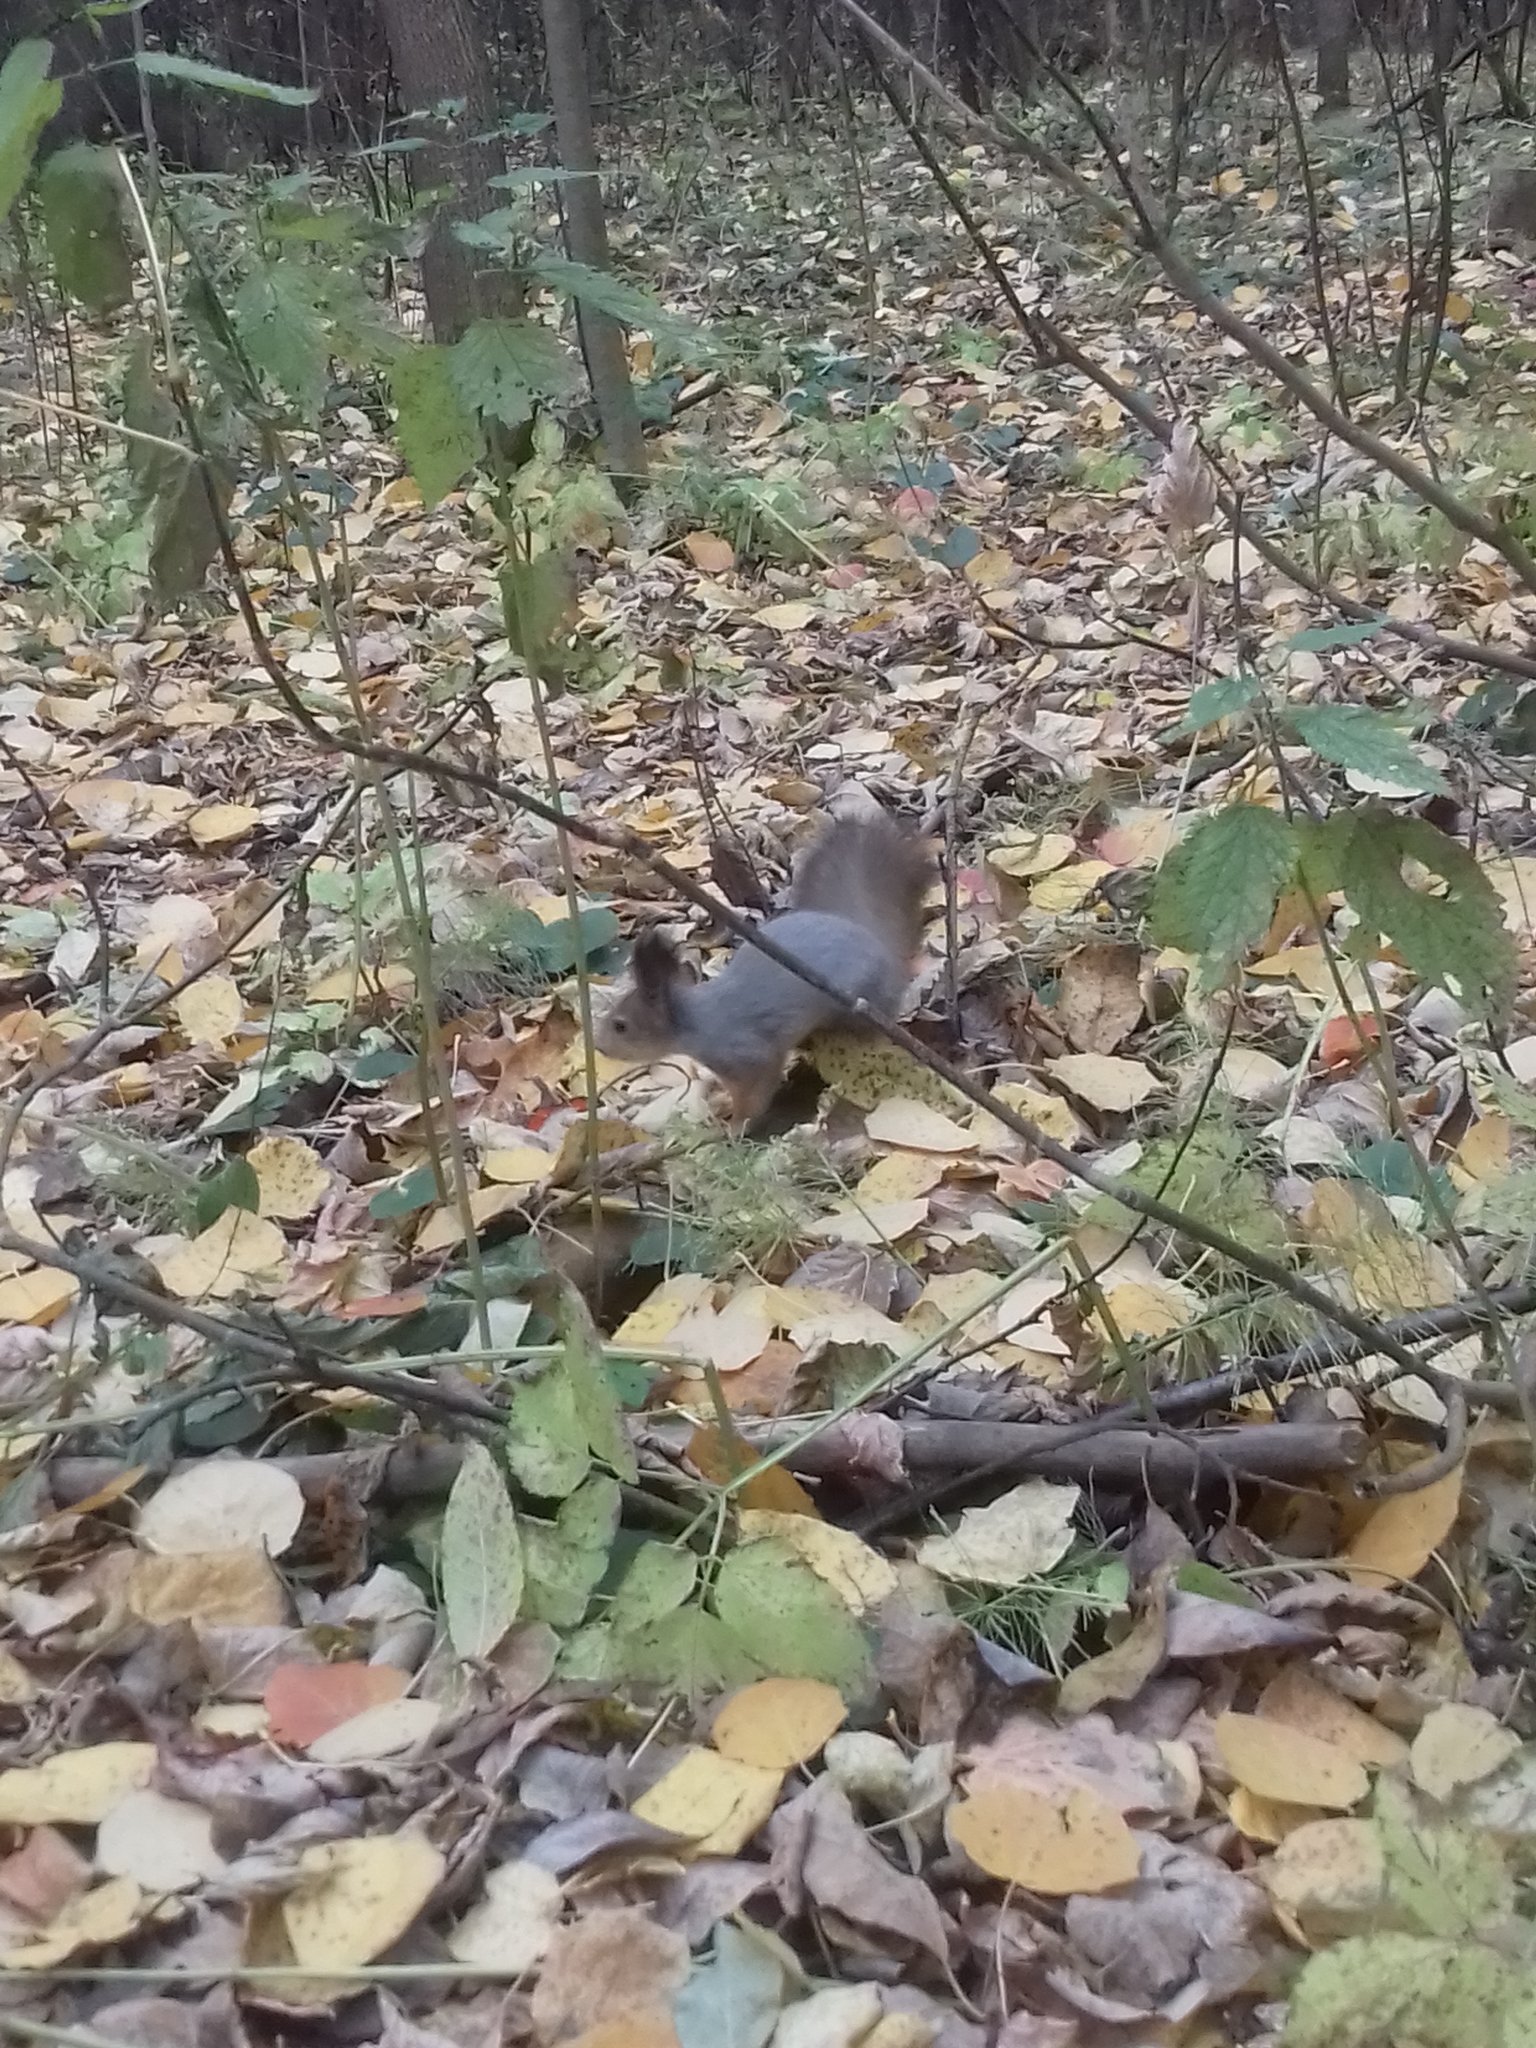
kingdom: Animalia
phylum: Chordata
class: Mammalia
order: Rodentia
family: Sciuridae
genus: Sciurus
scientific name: Sciurus vulgaris
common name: Eurasian red squirrel
